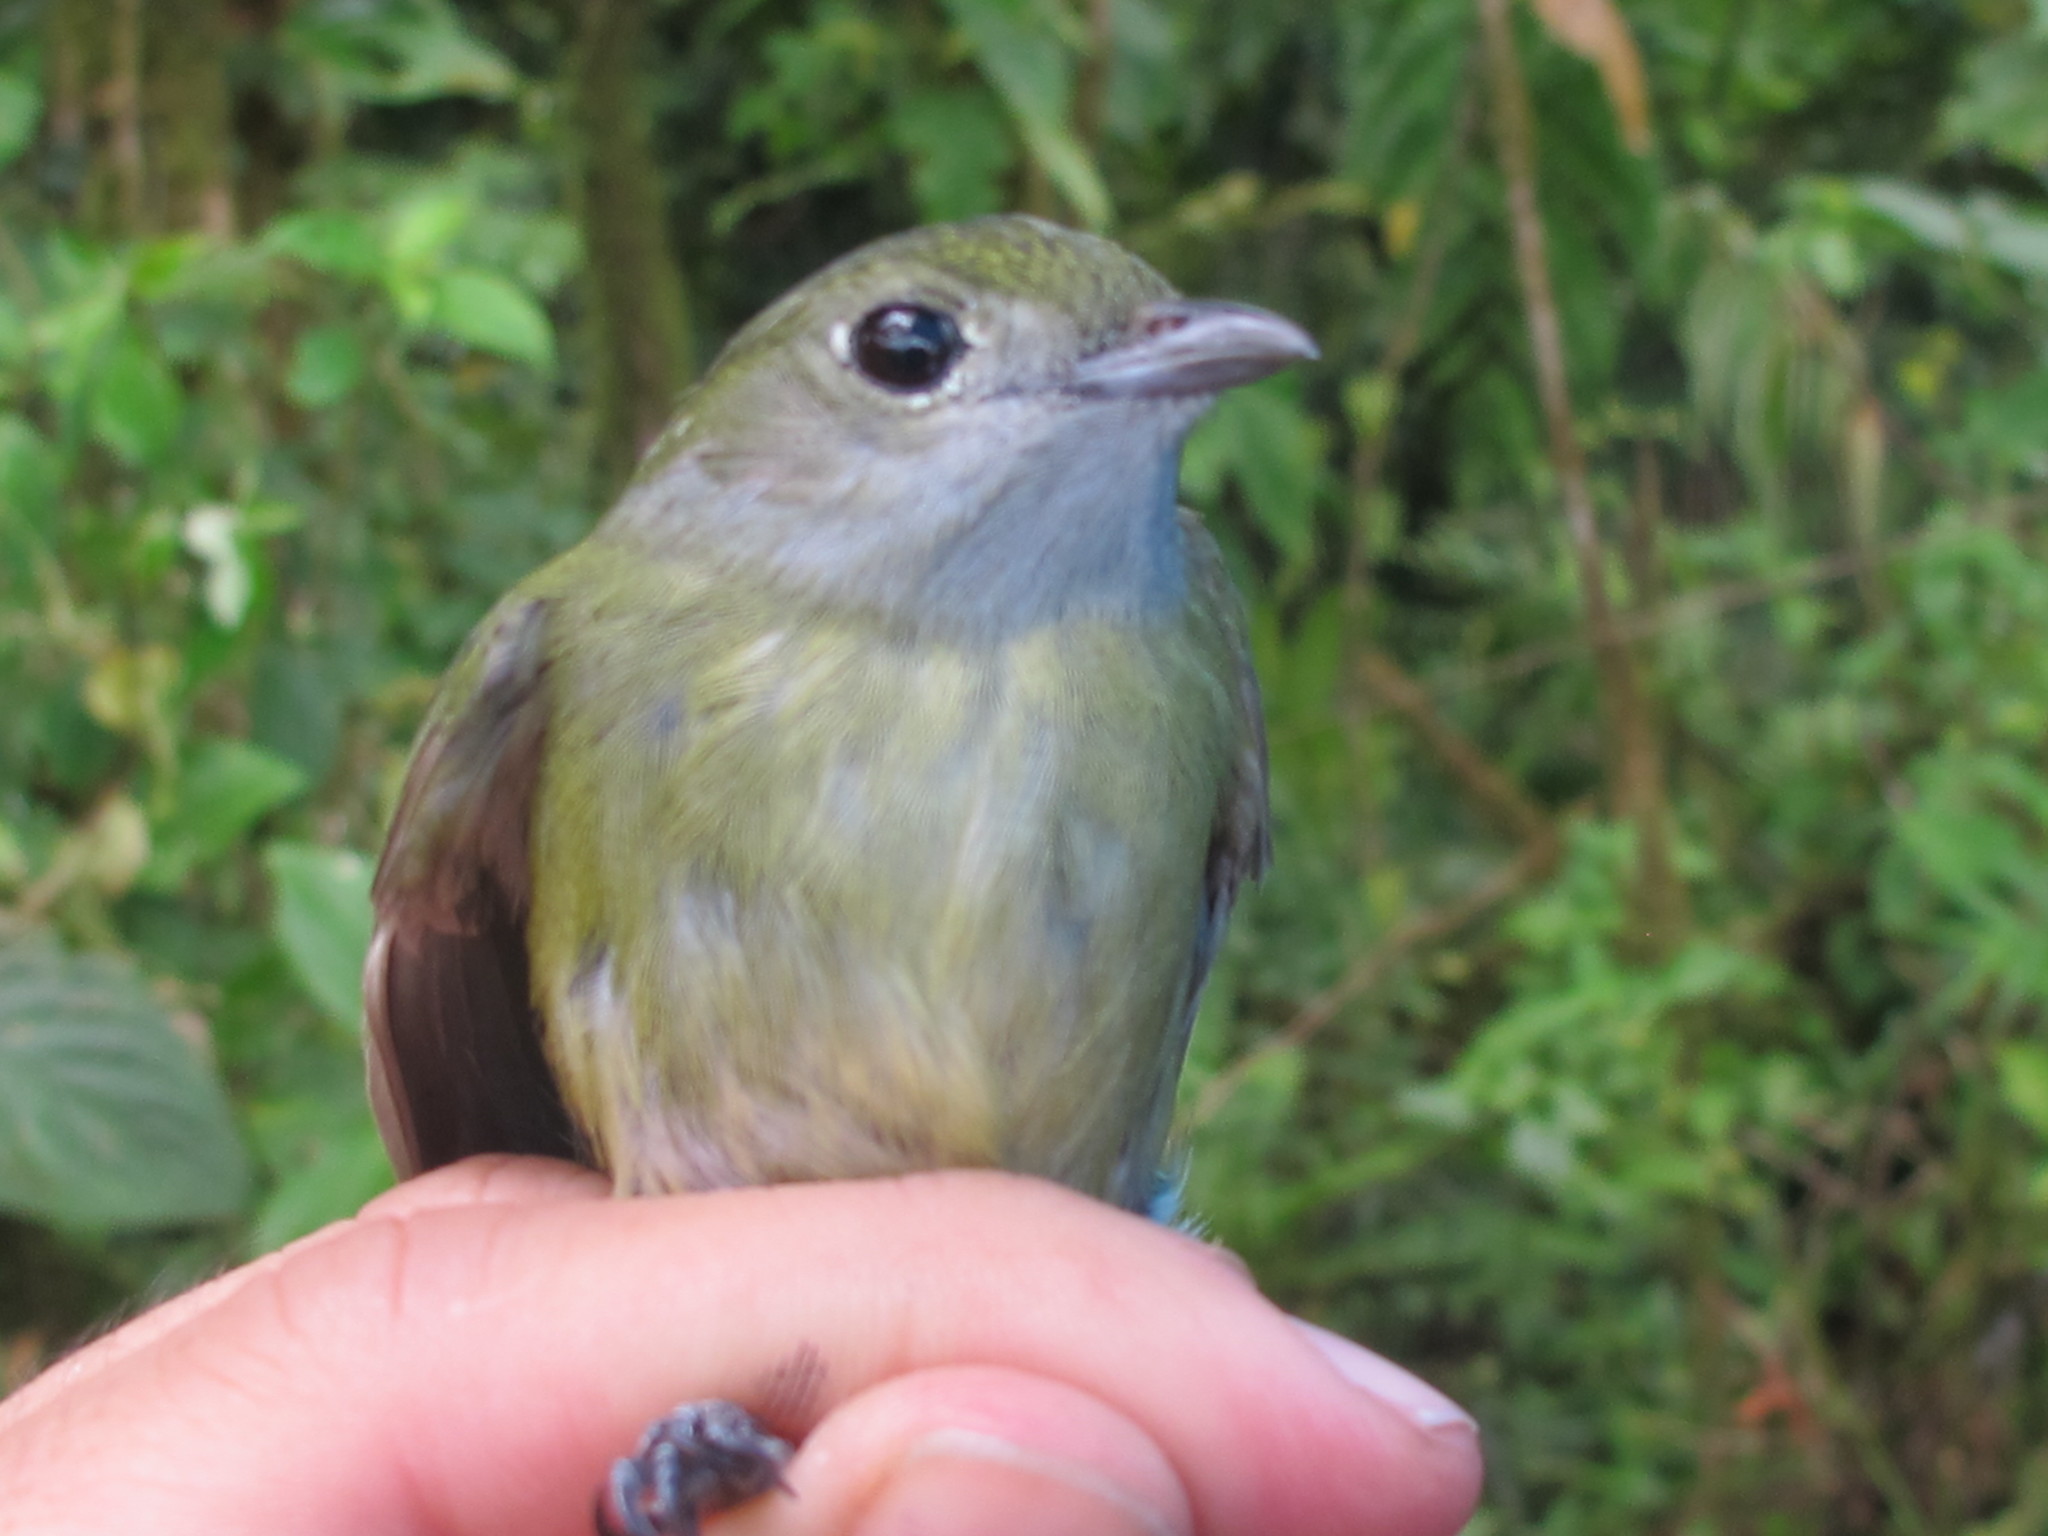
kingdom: Animalia
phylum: Chordata
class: Aves
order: Passeriformes
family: Pipridae
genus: Corapipo
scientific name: Corapipo altera
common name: White-ruffed manakin
